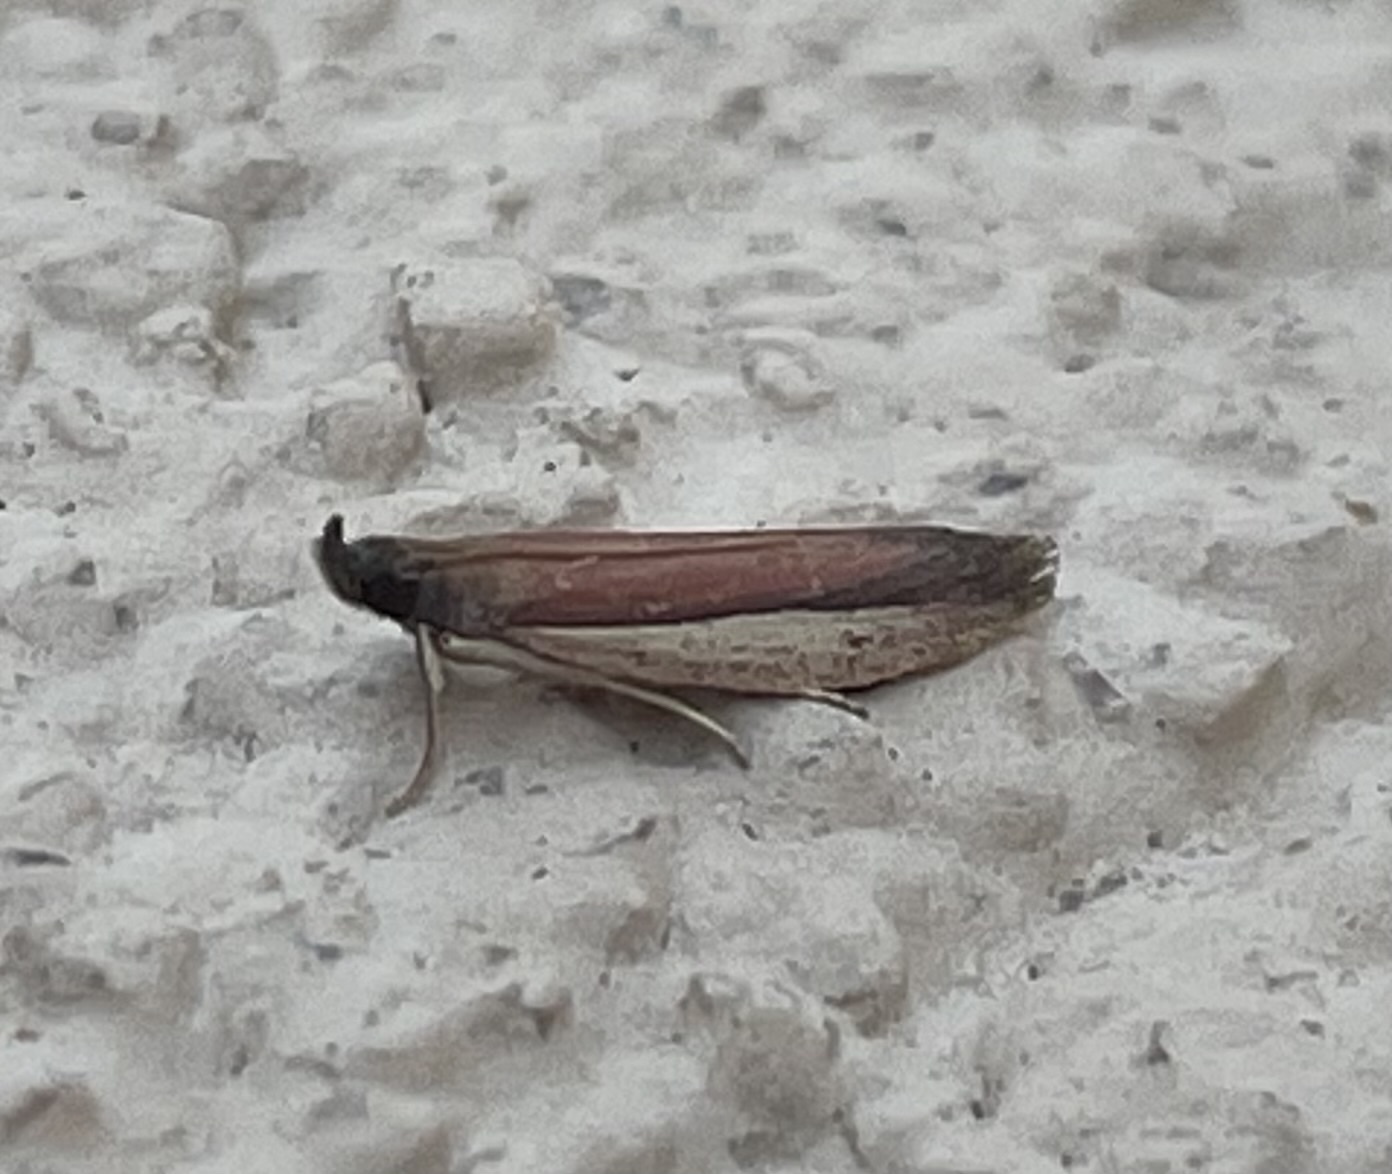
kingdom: Animalia
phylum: Arthropoda
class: Insecta
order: Lepidoptera
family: Pyralidae
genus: Tampa
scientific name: Tampa dimediatella
